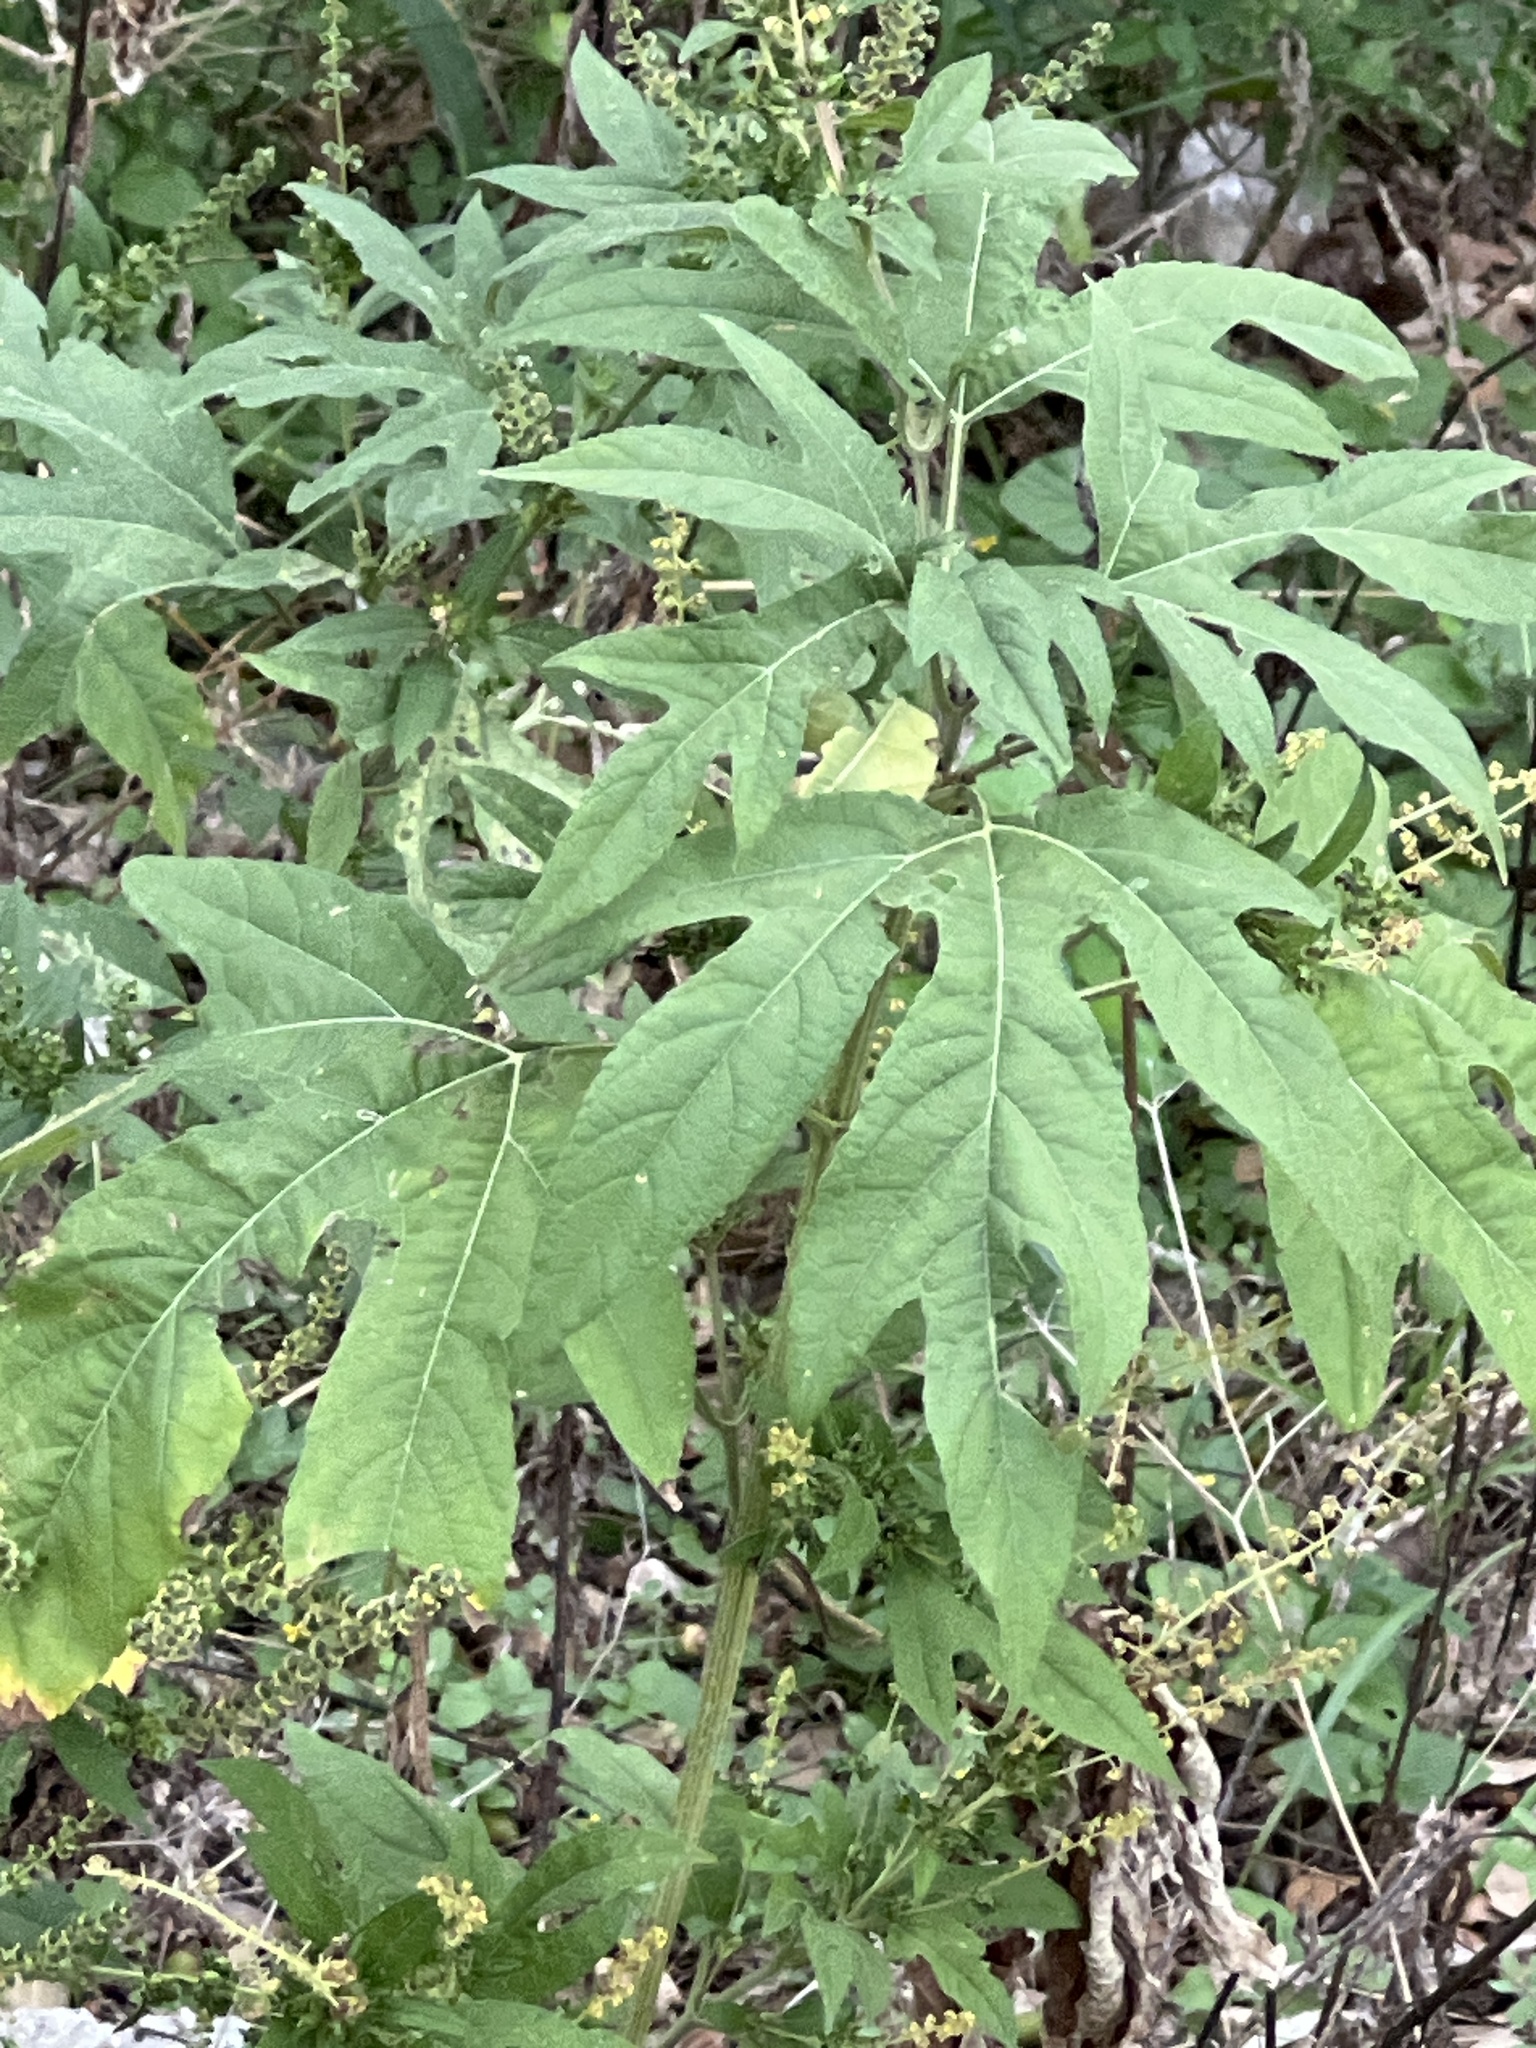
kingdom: Plantae
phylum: Tracheophyta
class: Magnoliopsida
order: Asterales
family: Asteraceae
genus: Ambrosia
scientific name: Ambrosia trifida
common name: Giant ragweed
